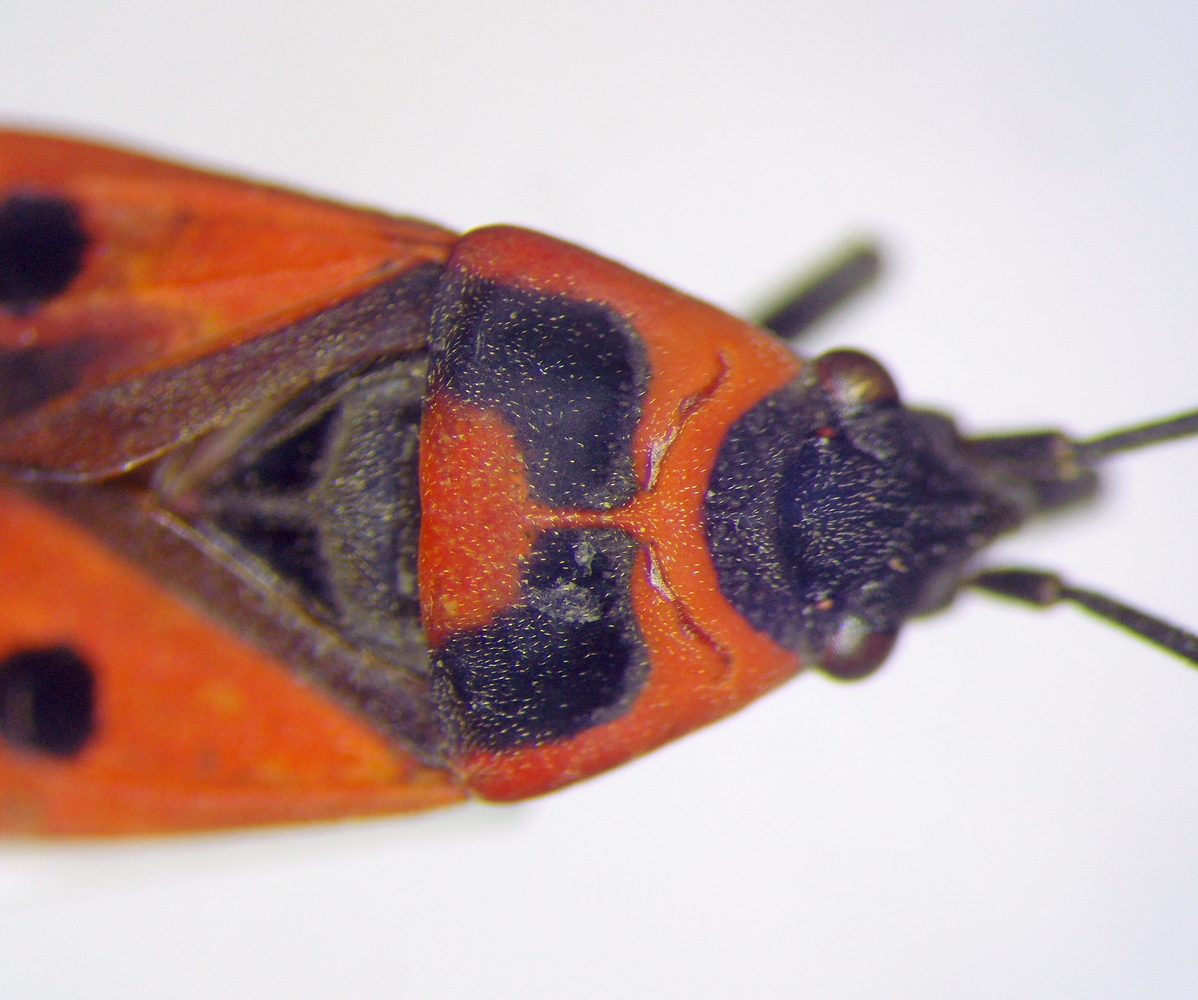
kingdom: Animalia
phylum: Arthropoda
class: Insecta
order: Hemiptera
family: Lygaeidae
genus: Melanocoryphus
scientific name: Melanocoryphus albomaculatus
